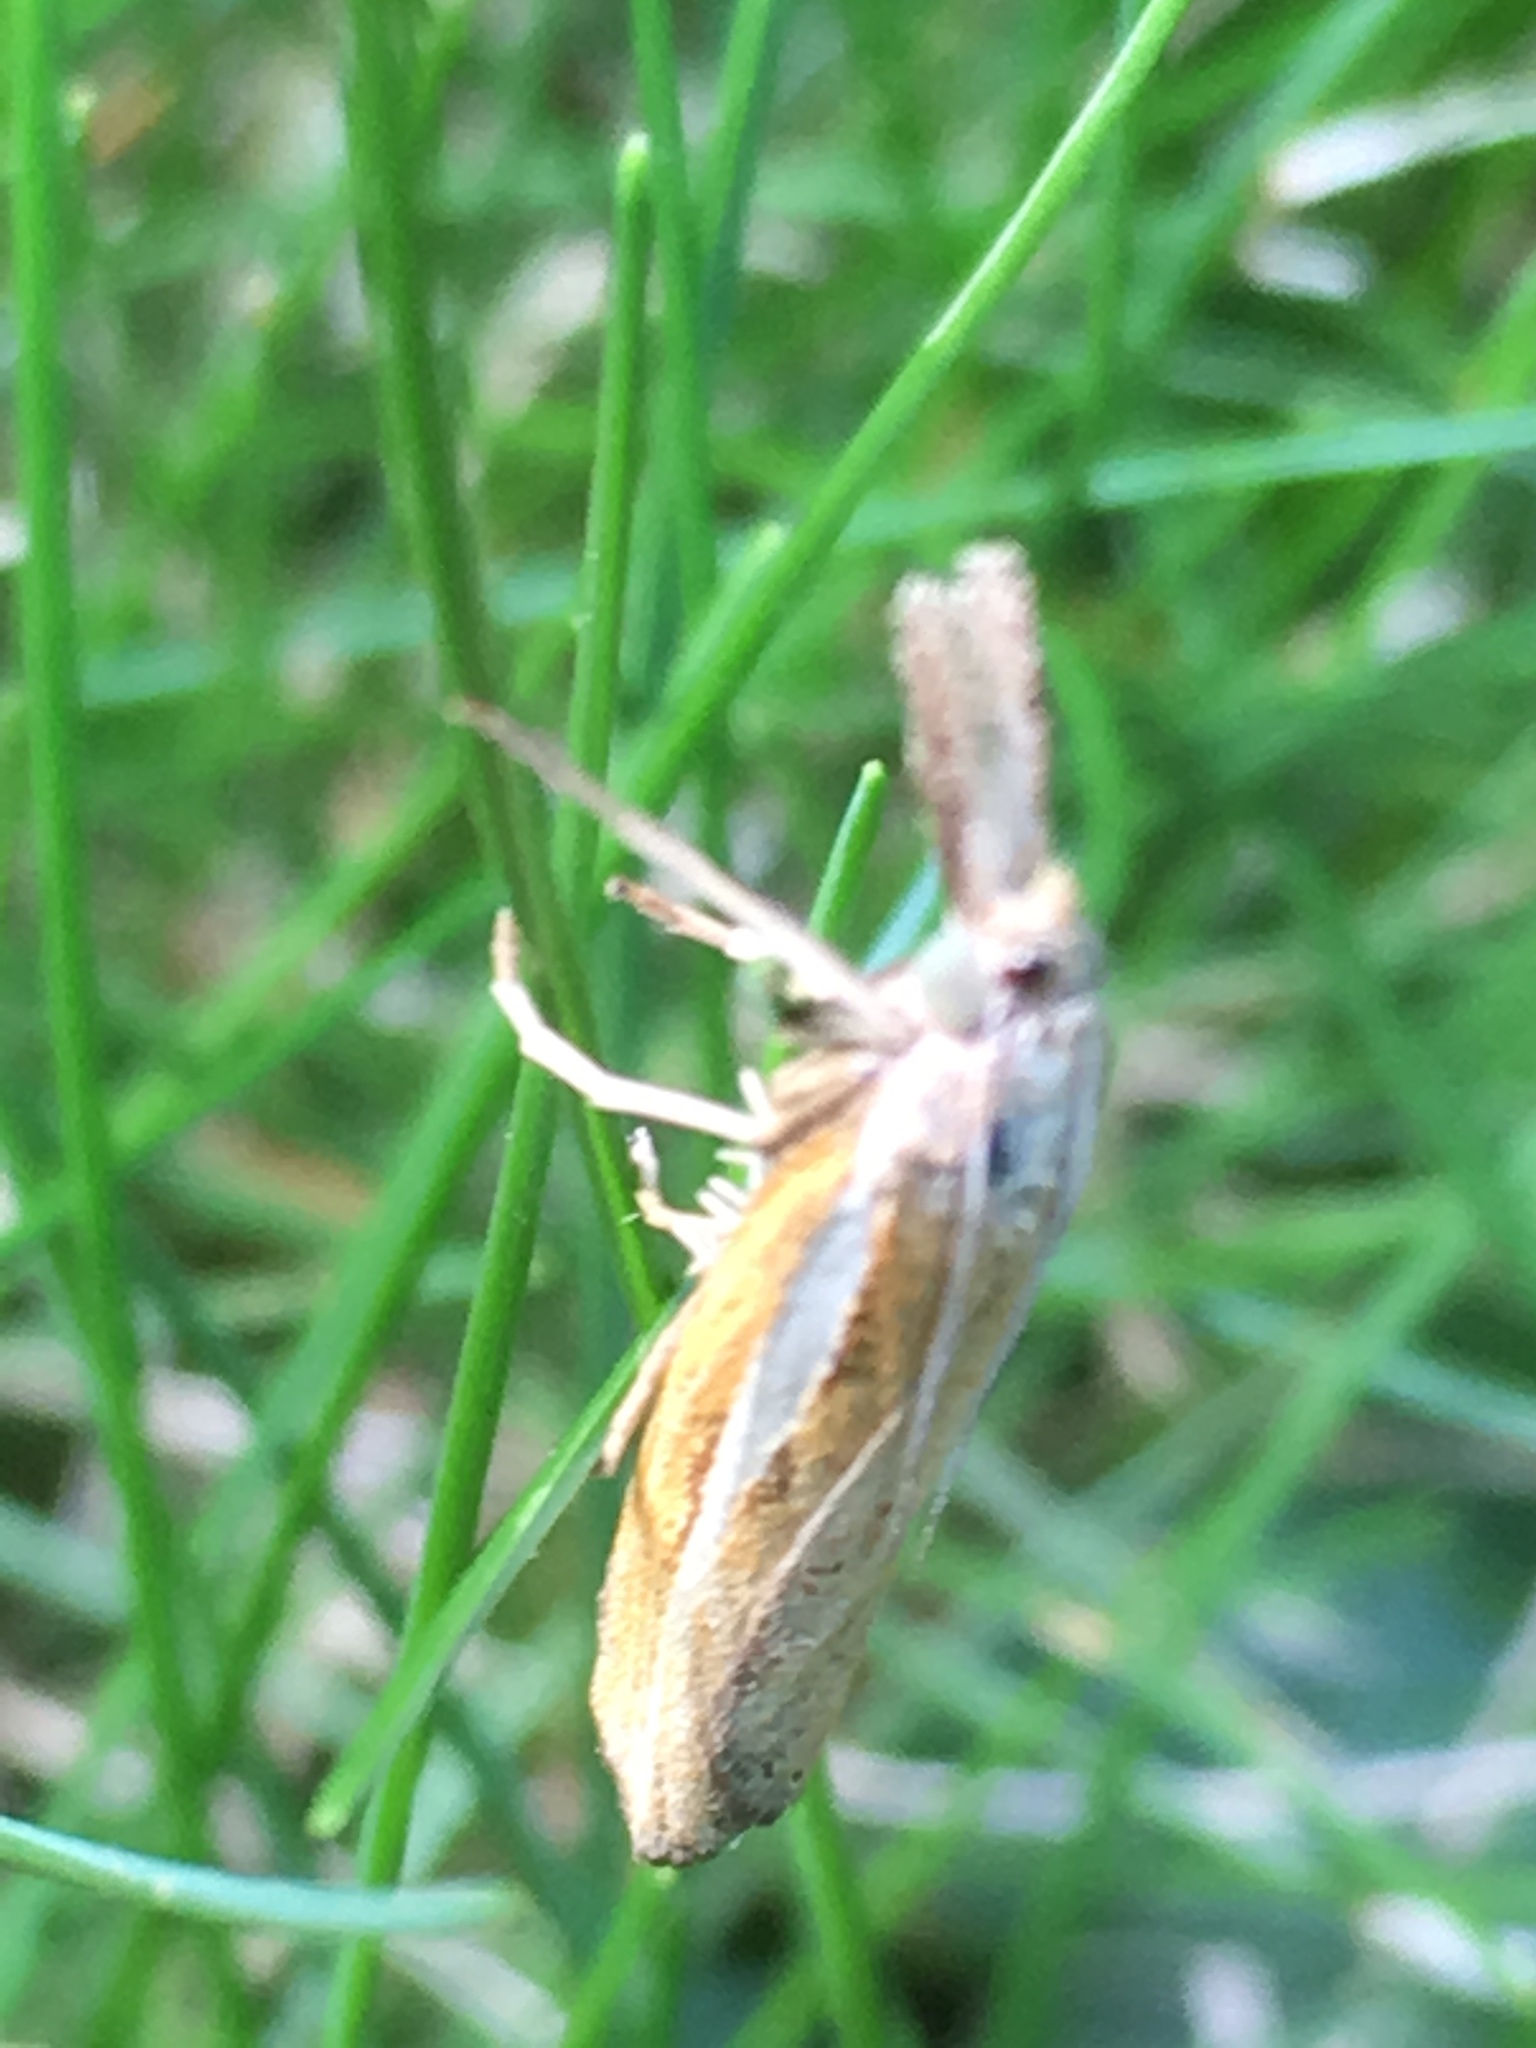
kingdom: Animalia
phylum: Arthropoda
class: Insecta
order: Lepidoptera
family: Crambidae
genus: Agriphila
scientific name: Agriphila tristellus
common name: Common grass-veneer
